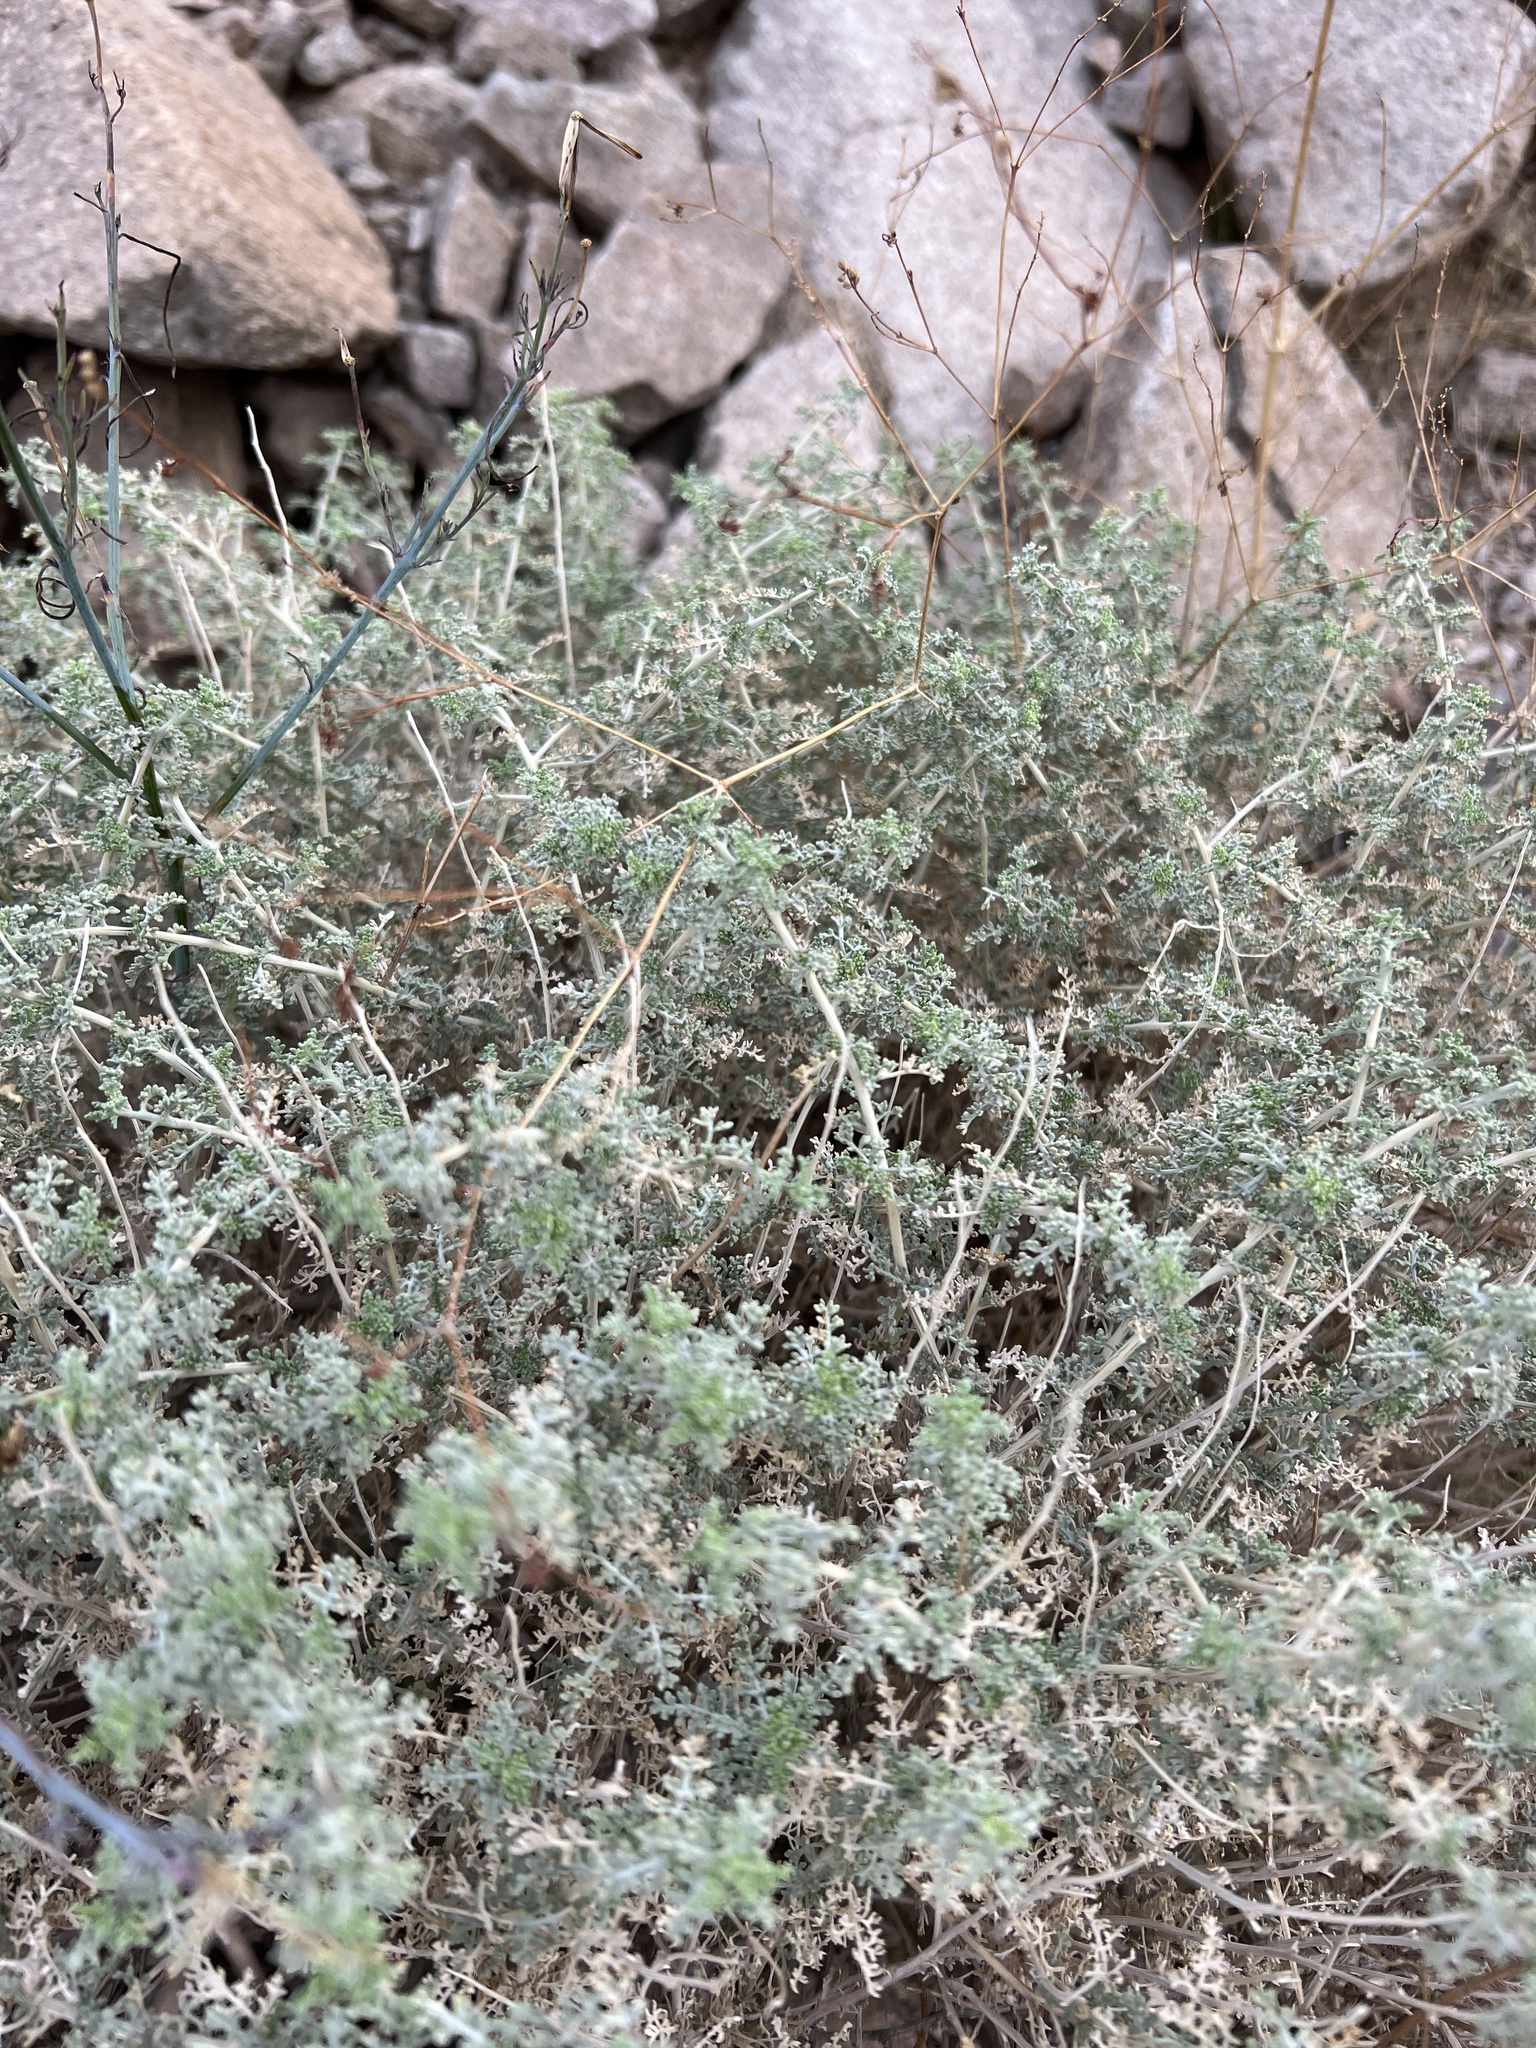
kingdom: Plantae
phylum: Tracheophyta
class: Magnoliopsida
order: Asterales
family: Asteraceae
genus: Ambrosia
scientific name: Ambrosia dumosa
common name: Bur-sage
